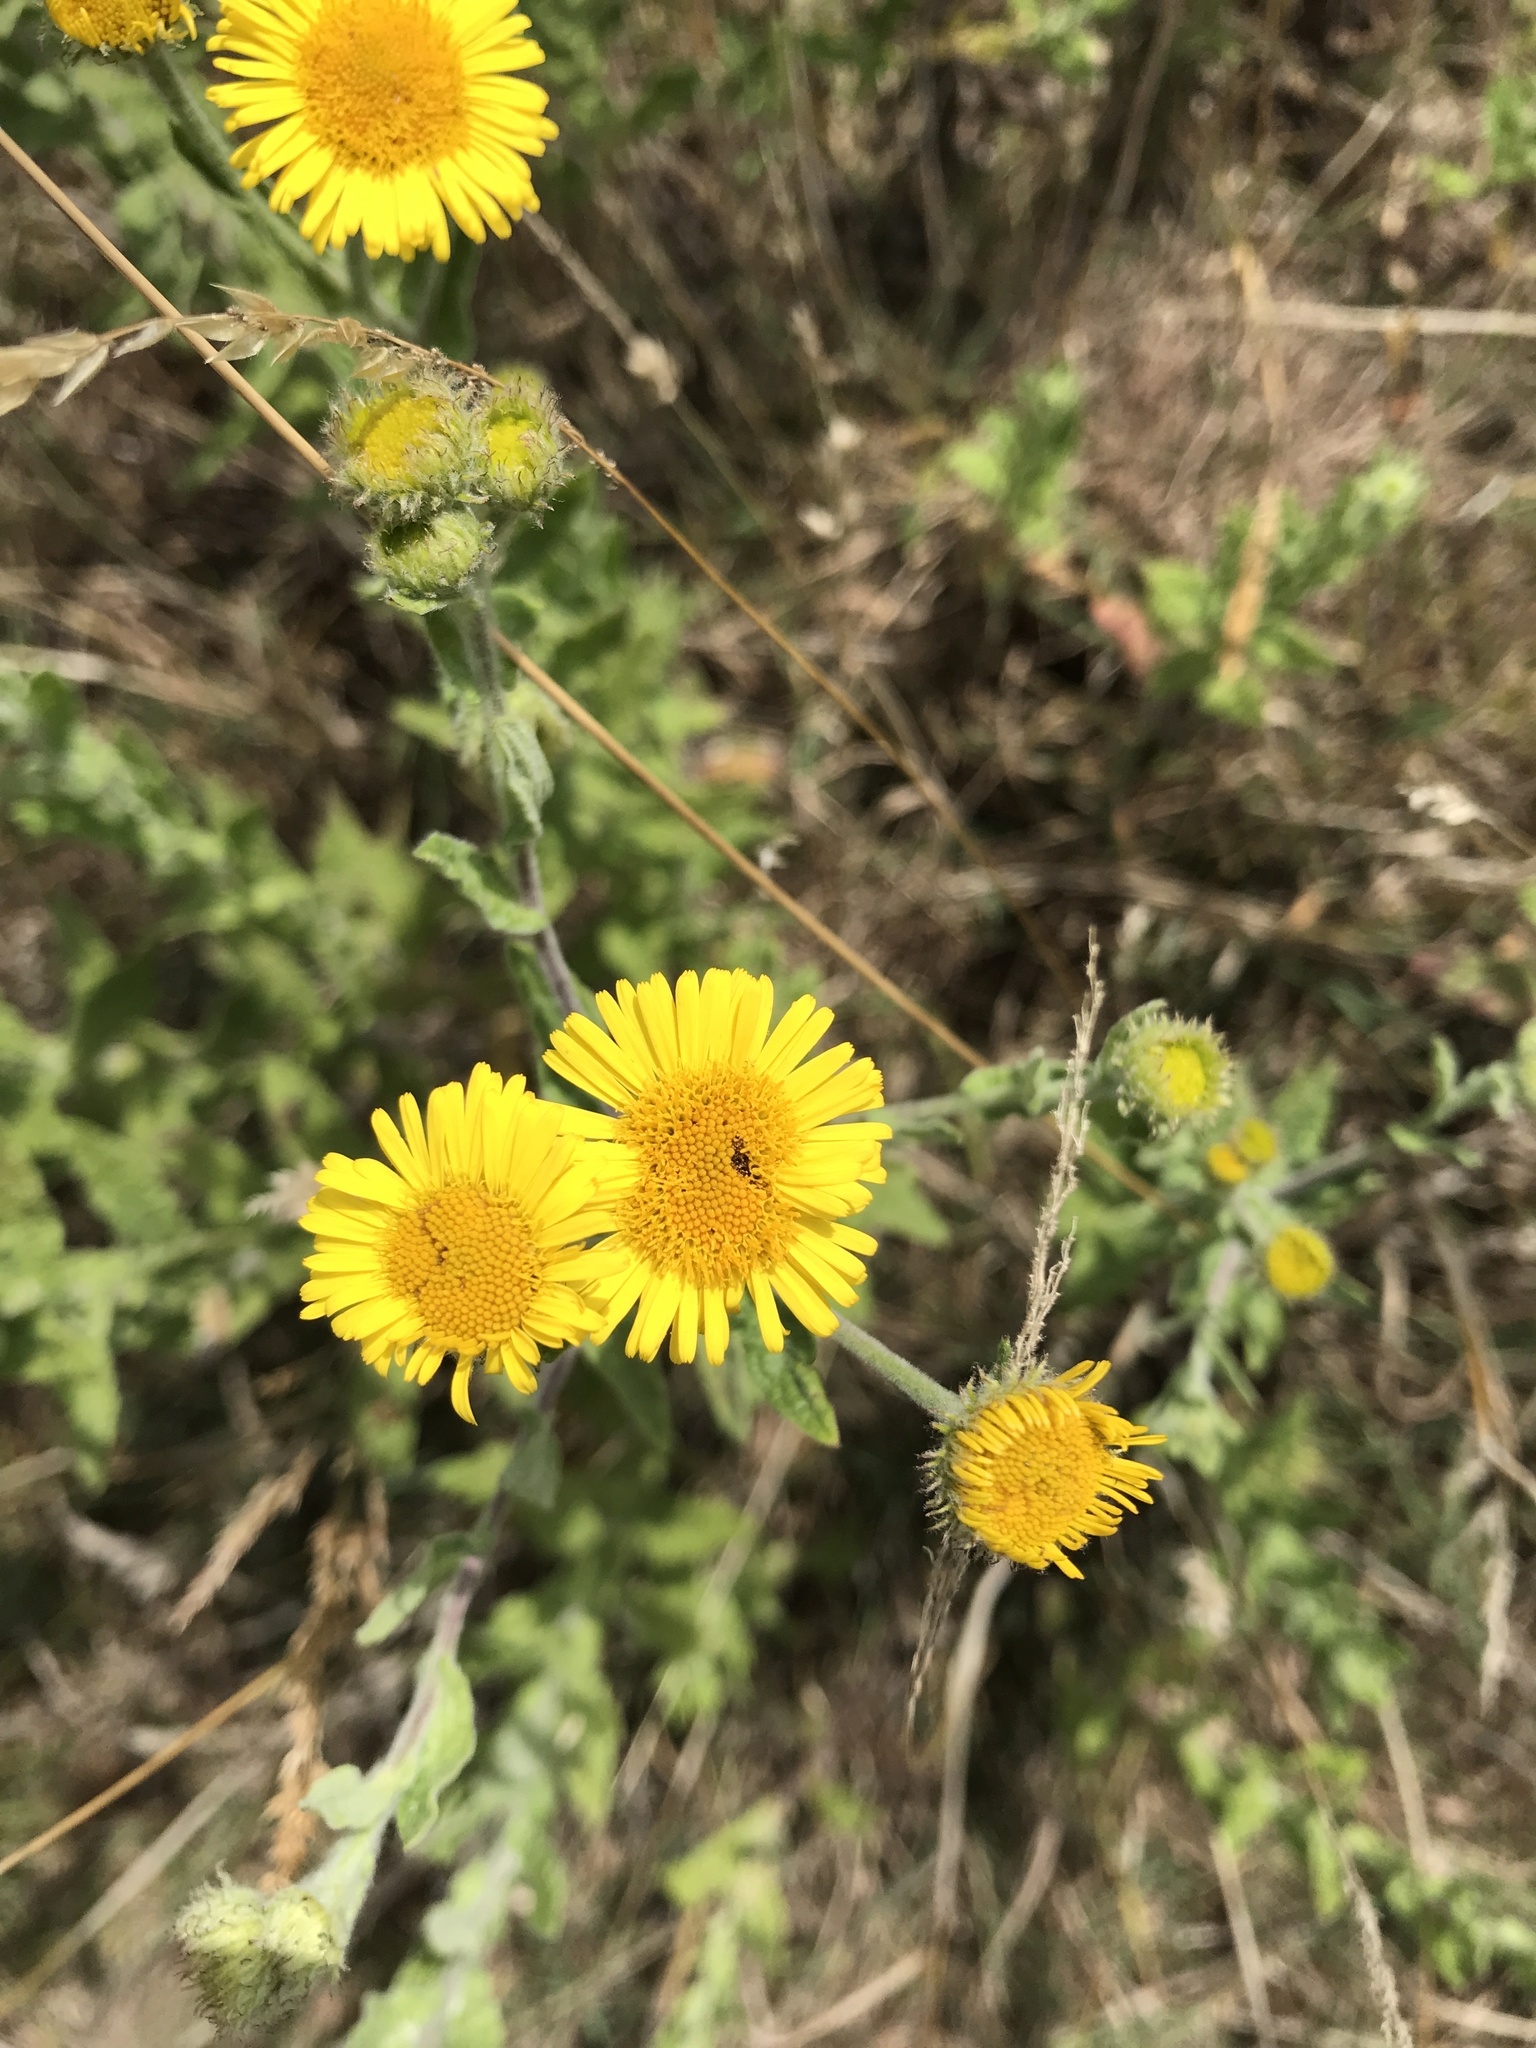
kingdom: Plantae
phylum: Tracheophyta
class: Magnoliopsida
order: Asterales
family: Asteraceae
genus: Pulicaria
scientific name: Pulicaria dysenterica
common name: Common fleabane
